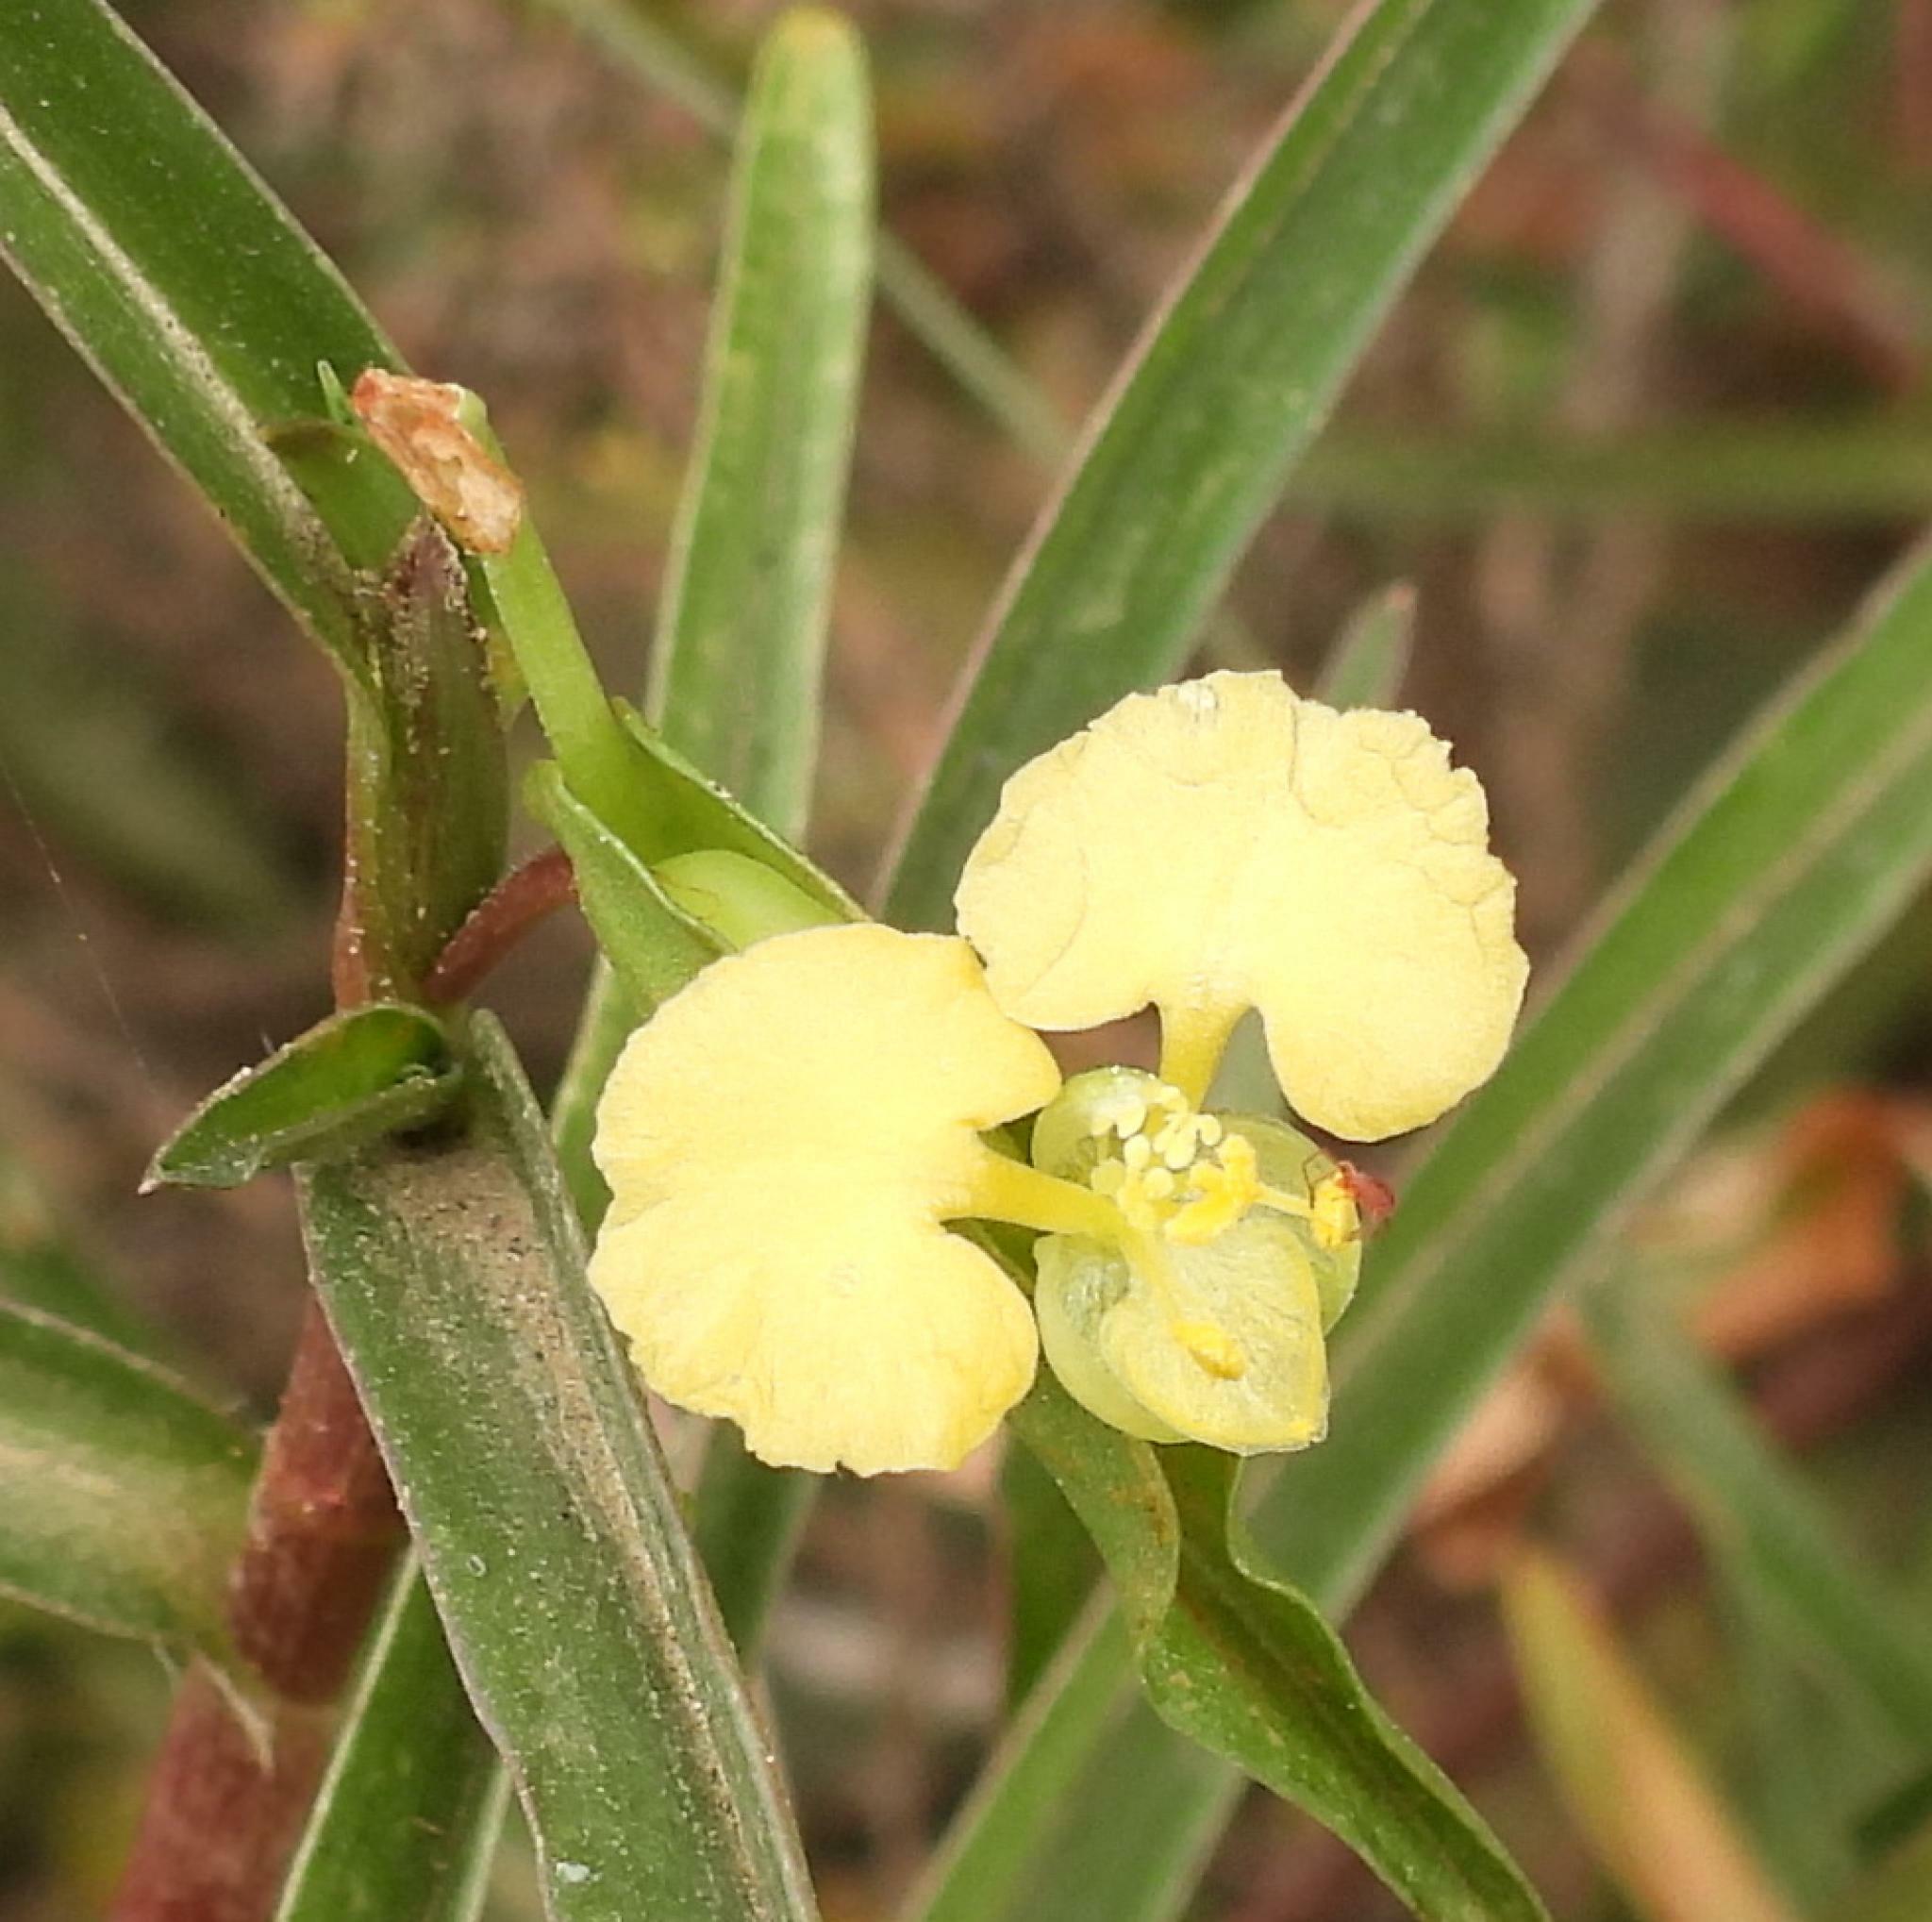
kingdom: Plantae
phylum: Tracheophyta
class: Liliopsida
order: Commelinales
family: Commelinaceae
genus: Commelina
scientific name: Commelina africana
